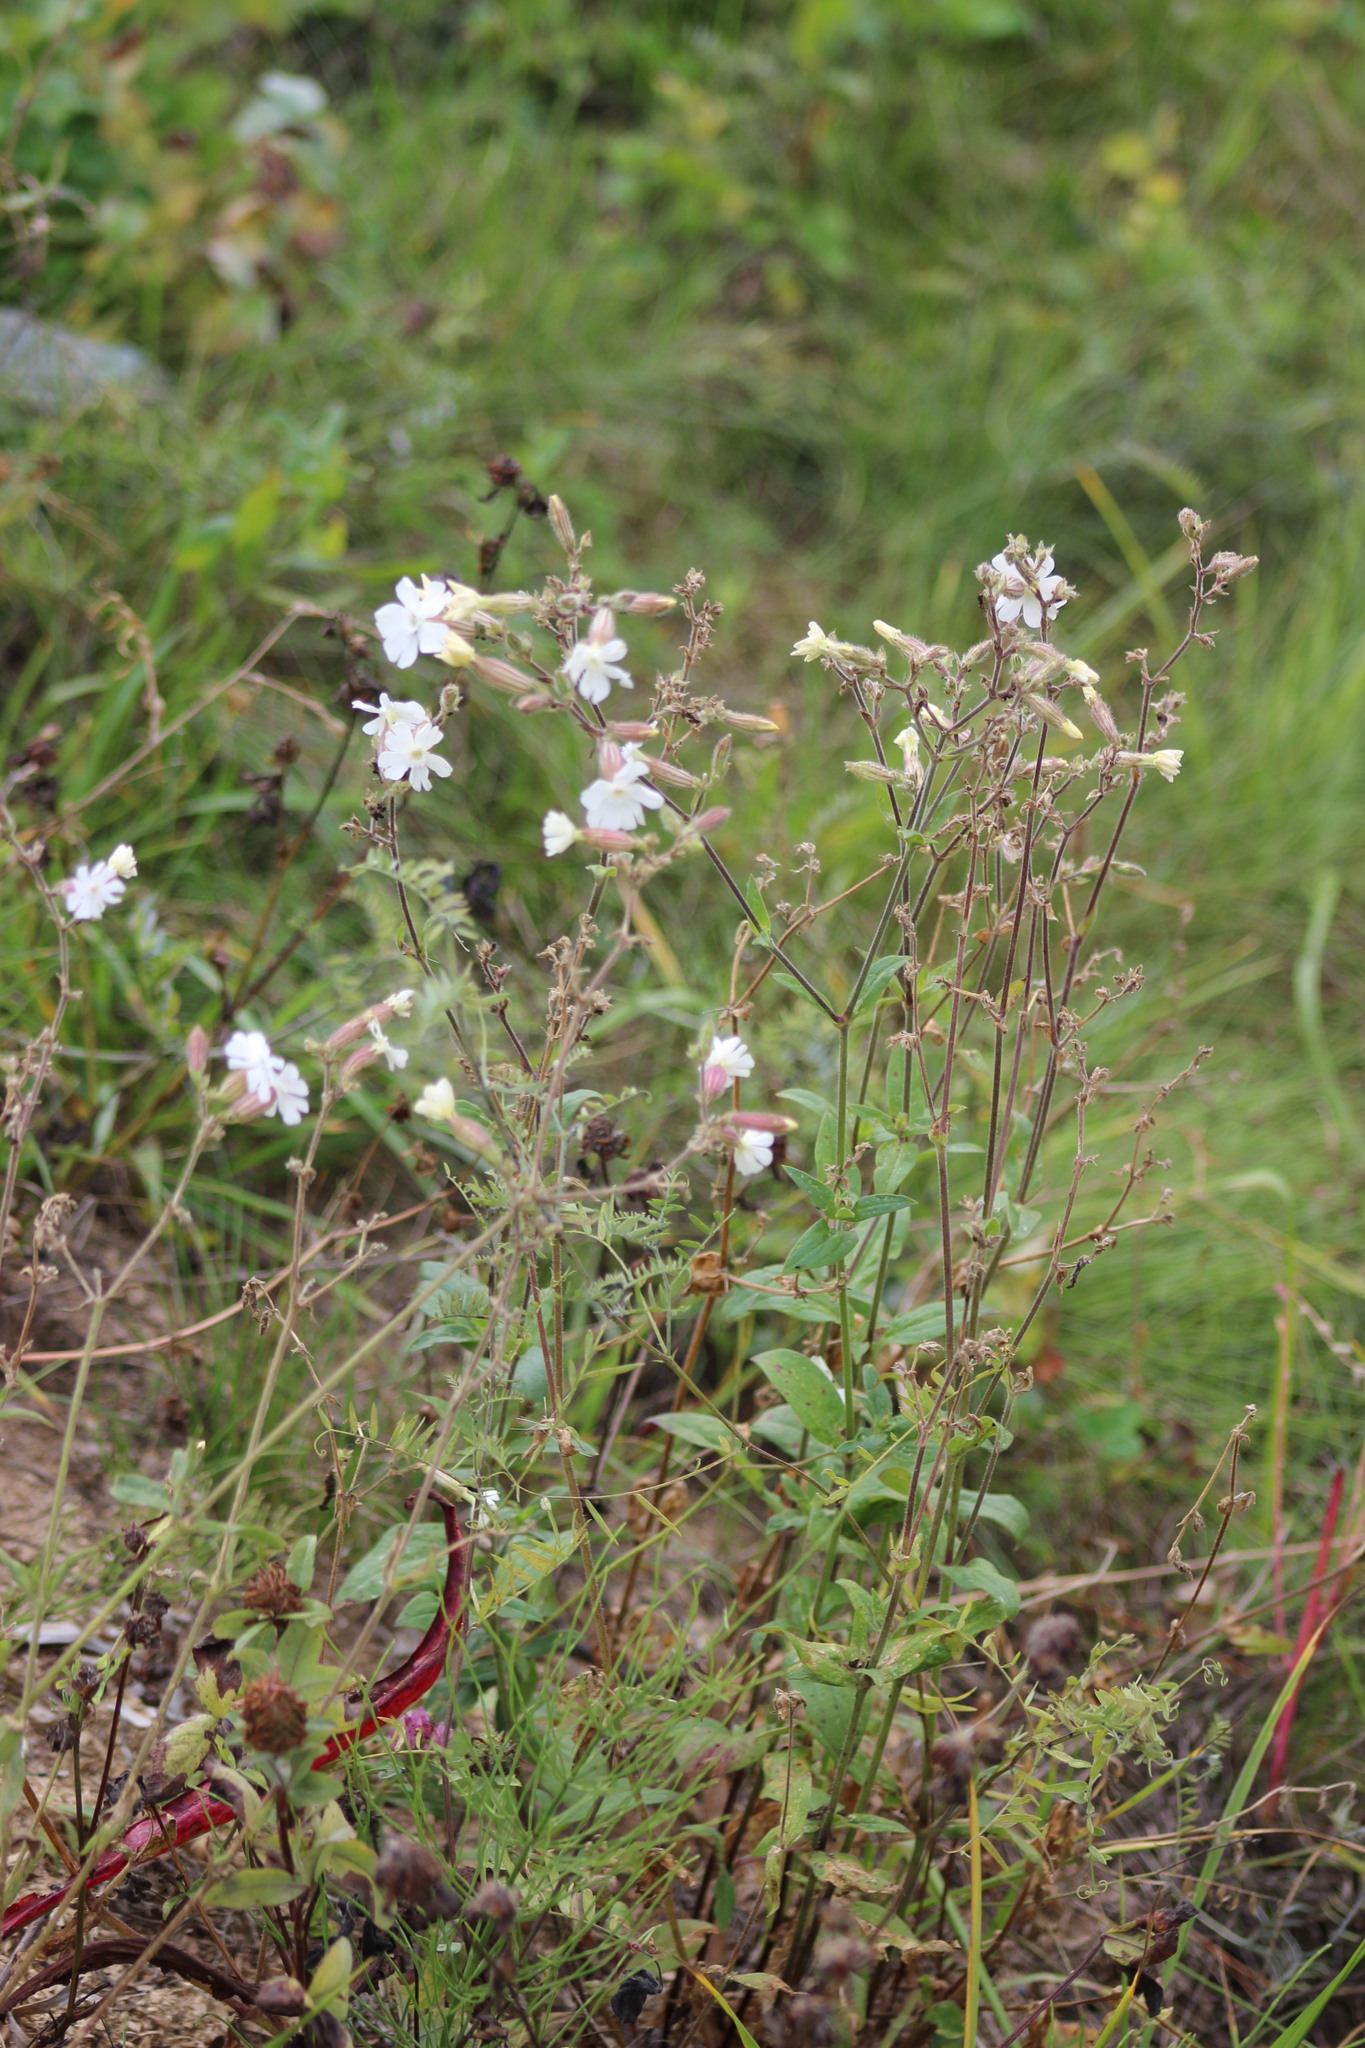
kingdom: Plantae
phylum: Tracheophyta
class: Magnoliopsida
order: Caryophyllales
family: Caryophyllaceae
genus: Silene
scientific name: Silene latifolia
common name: White campion
